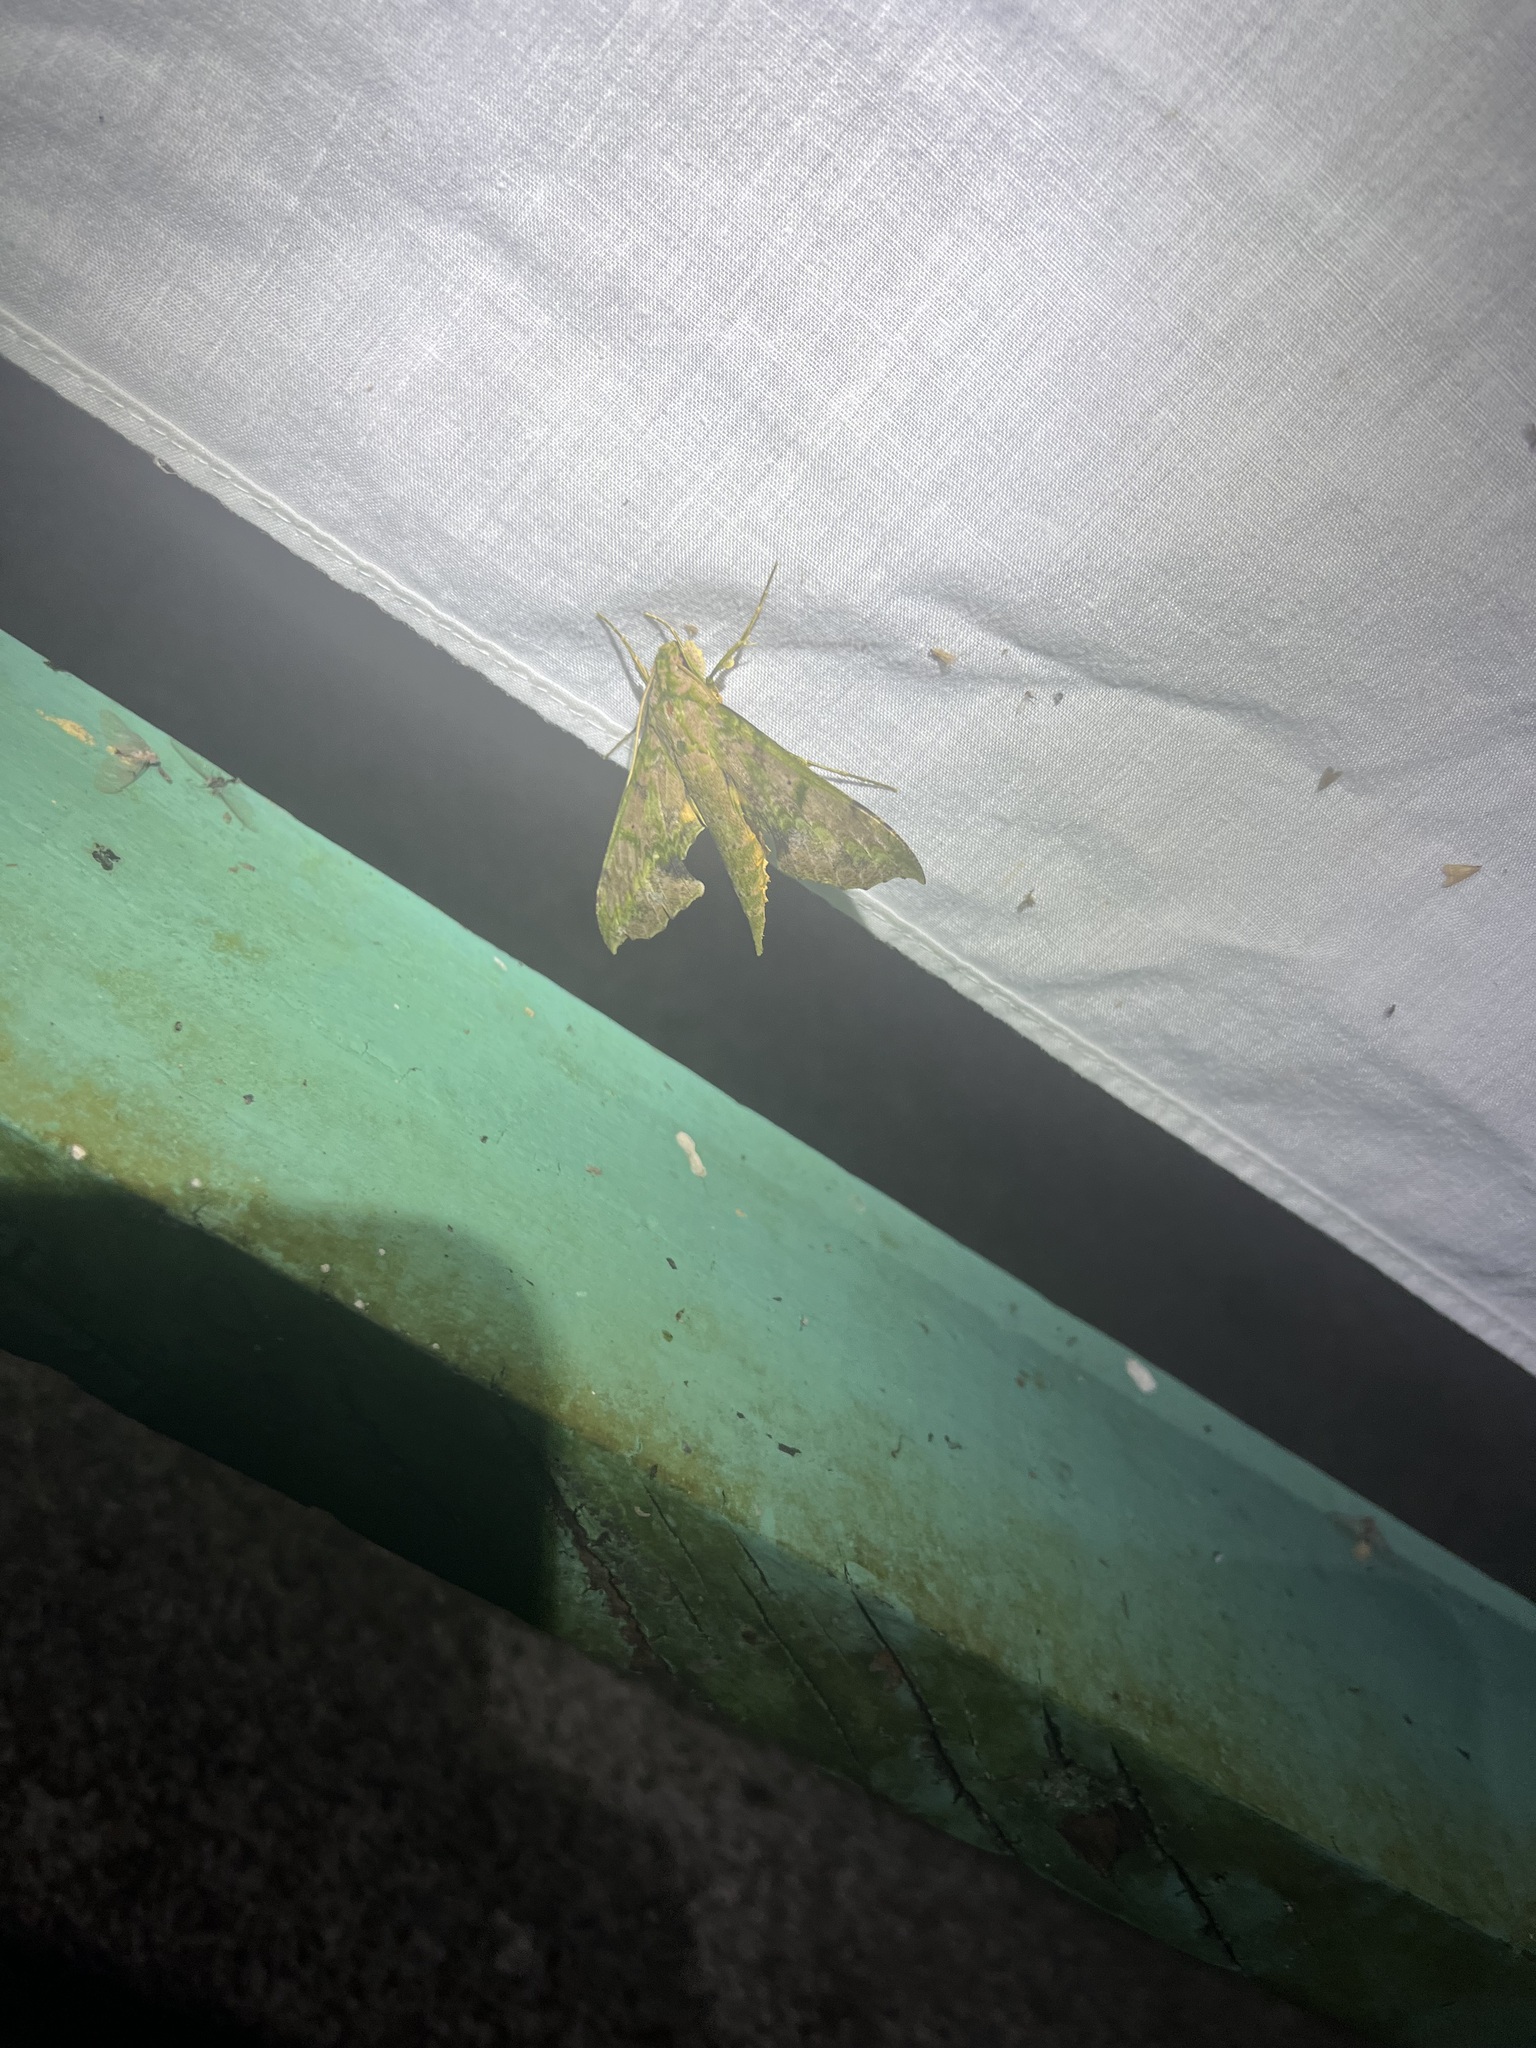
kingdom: Animalia
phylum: Arthropoda
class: Insecta
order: Lepidoptera
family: Sphingidae
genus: Xylophanes
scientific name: Xylophanes zurcheri
